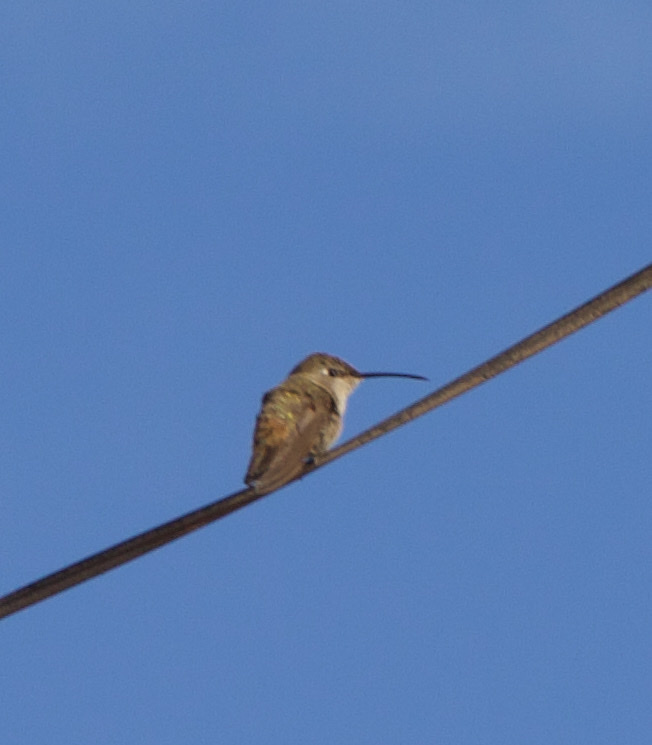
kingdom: Animalia
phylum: Chordata
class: Aves
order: Apodiformes
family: Trochilidae
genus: Rhodopis
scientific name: Rhodopis vesper
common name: Oasis hummingbird
